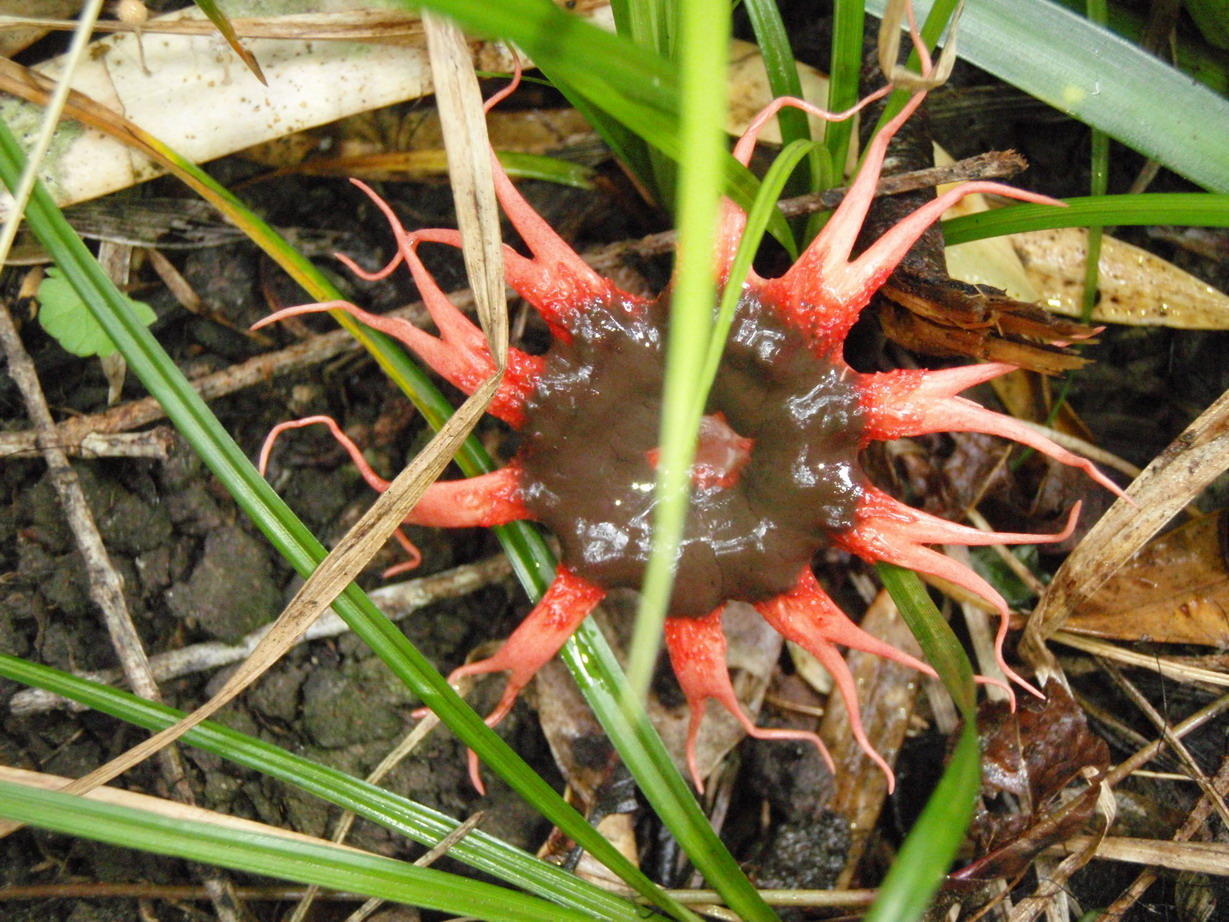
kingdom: Fungi
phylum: Basidiomycota
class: Agaricomycetes
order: Phallales
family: Phallaceae
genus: Aseroe
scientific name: Aseroe rubra
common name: Starfish fungus
